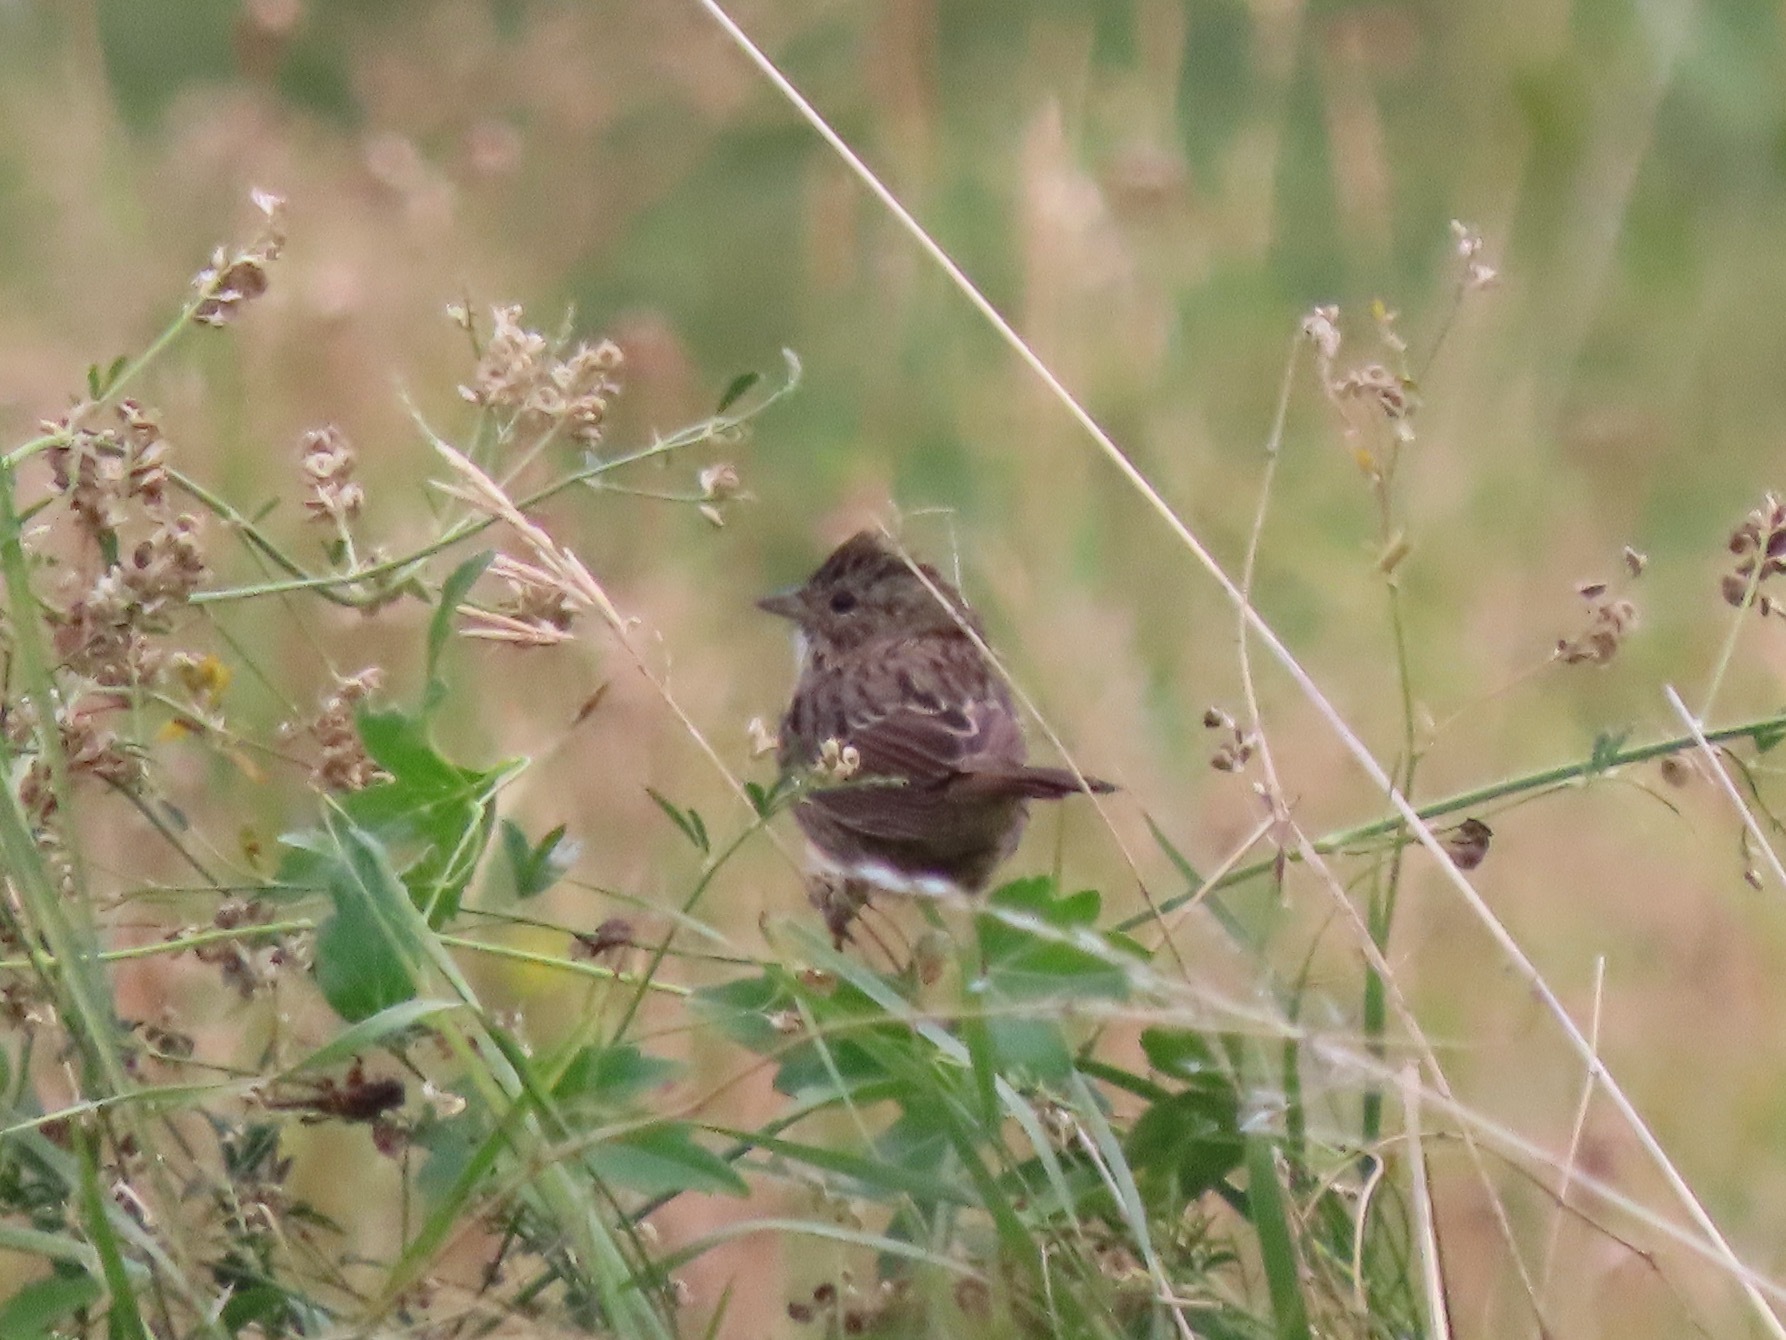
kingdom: Animalia
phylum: Chordata
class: Aves
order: Passeriformes
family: Passerellidae
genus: Melospiza
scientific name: Melospiza lincolnii
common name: Lincoln's sparrow
